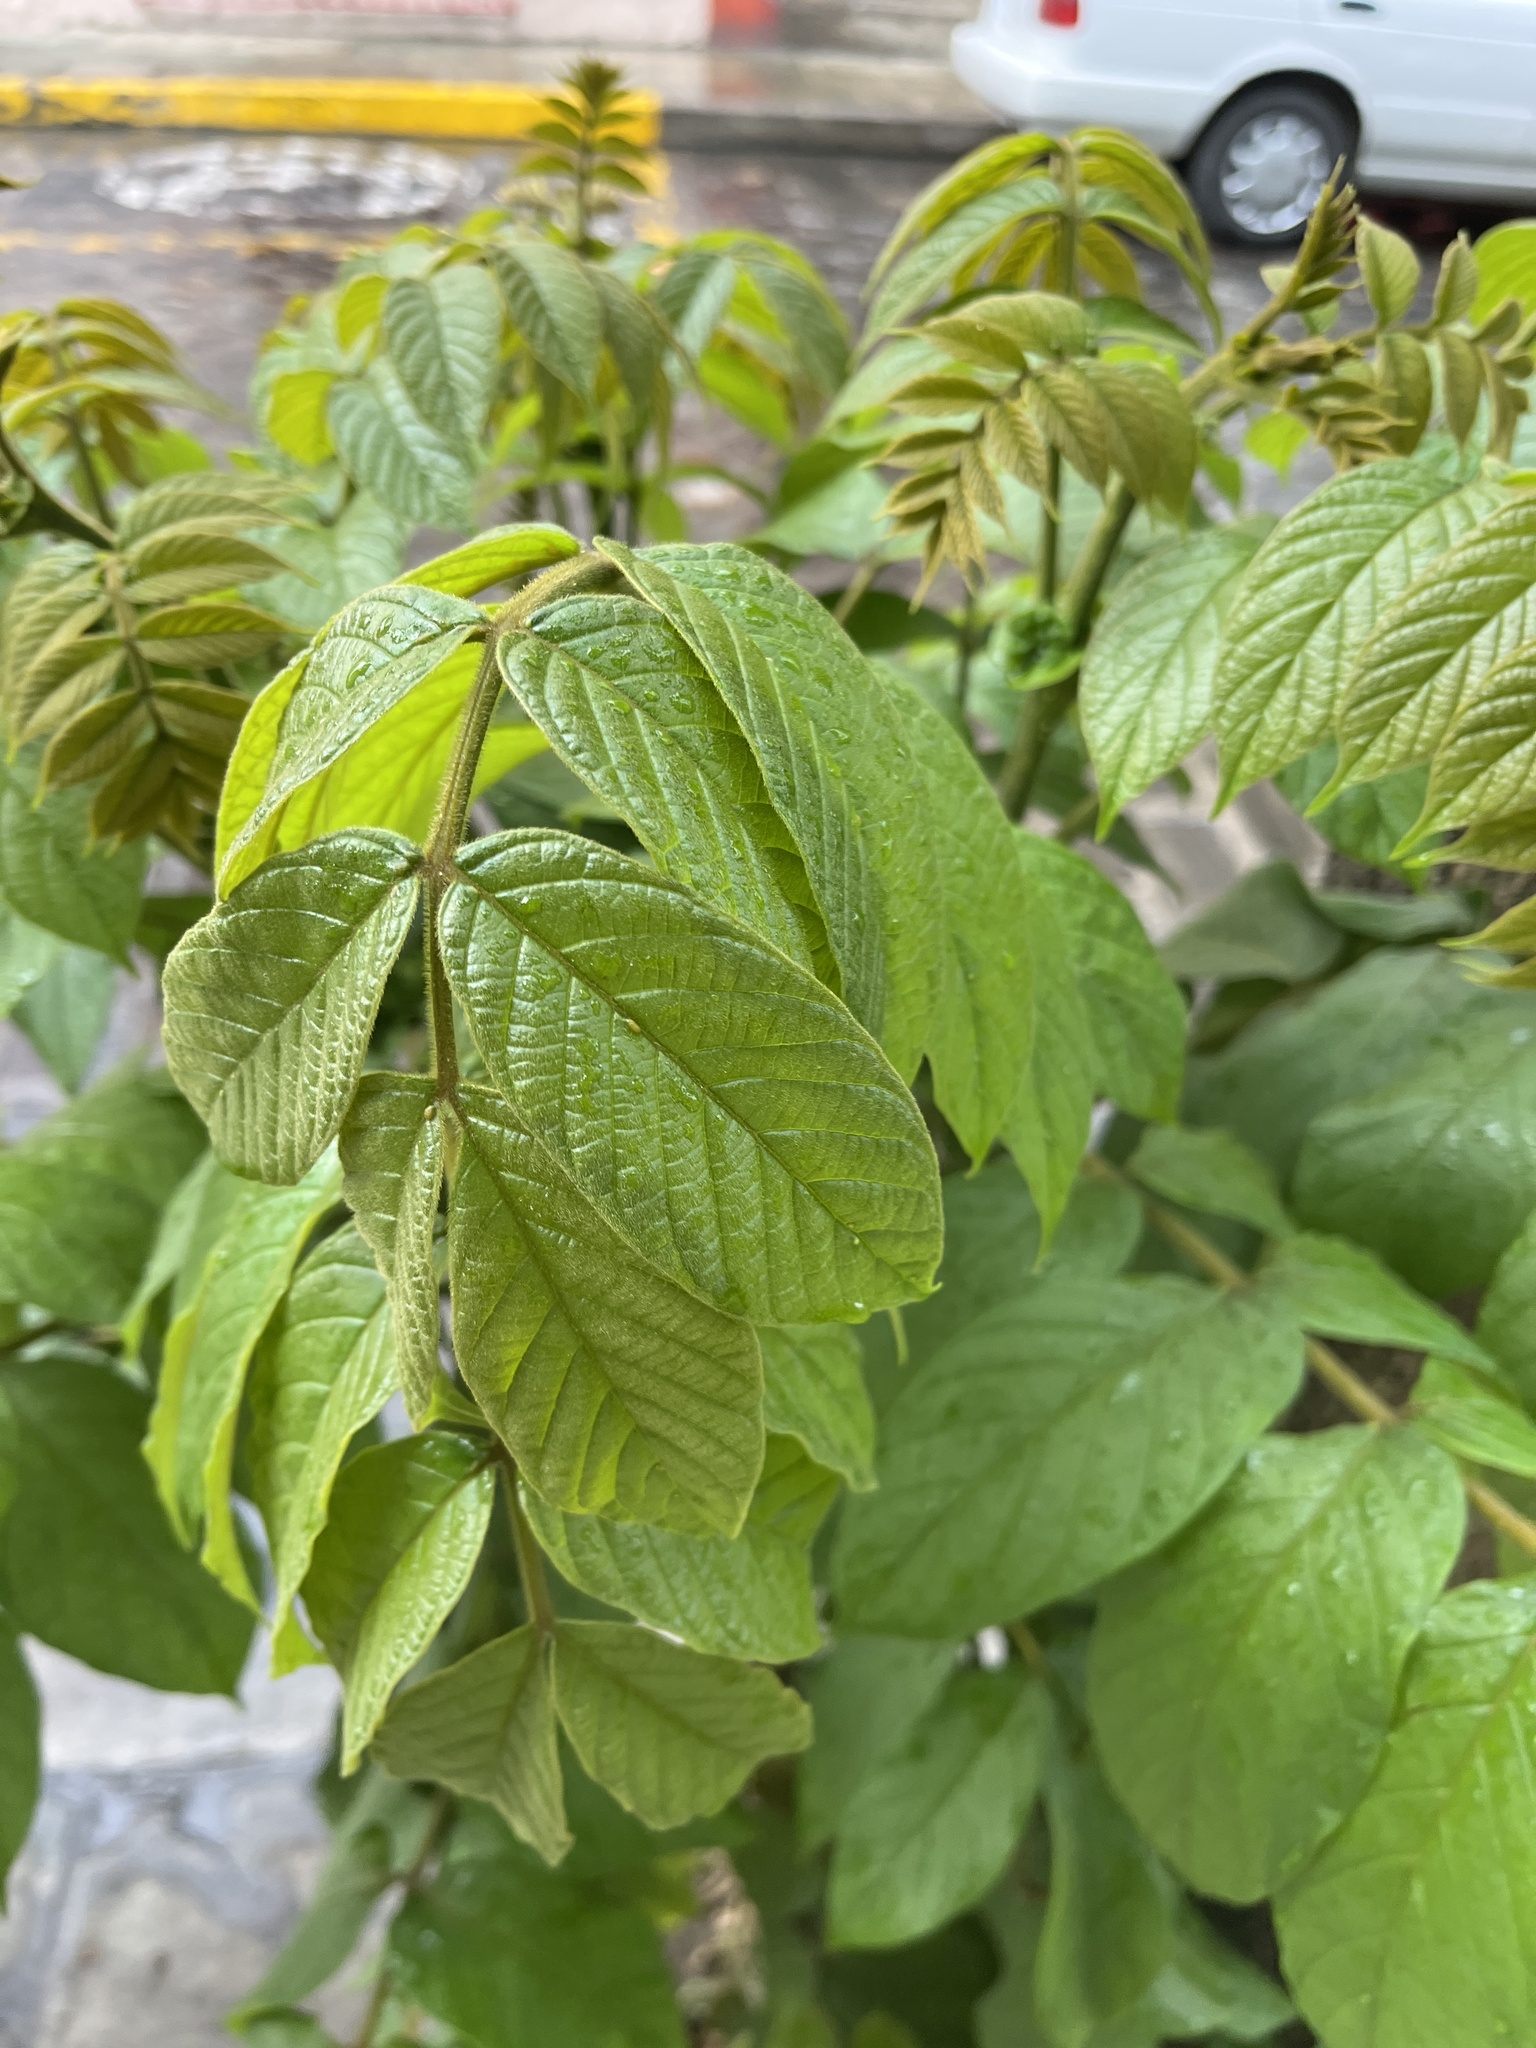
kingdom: Plantae
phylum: Tracheophyta
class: Magnoliopsida
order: Lamiales
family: Bignoniaceae
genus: Spathodea
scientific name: Spathodea campanulata
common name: African tuliptree
